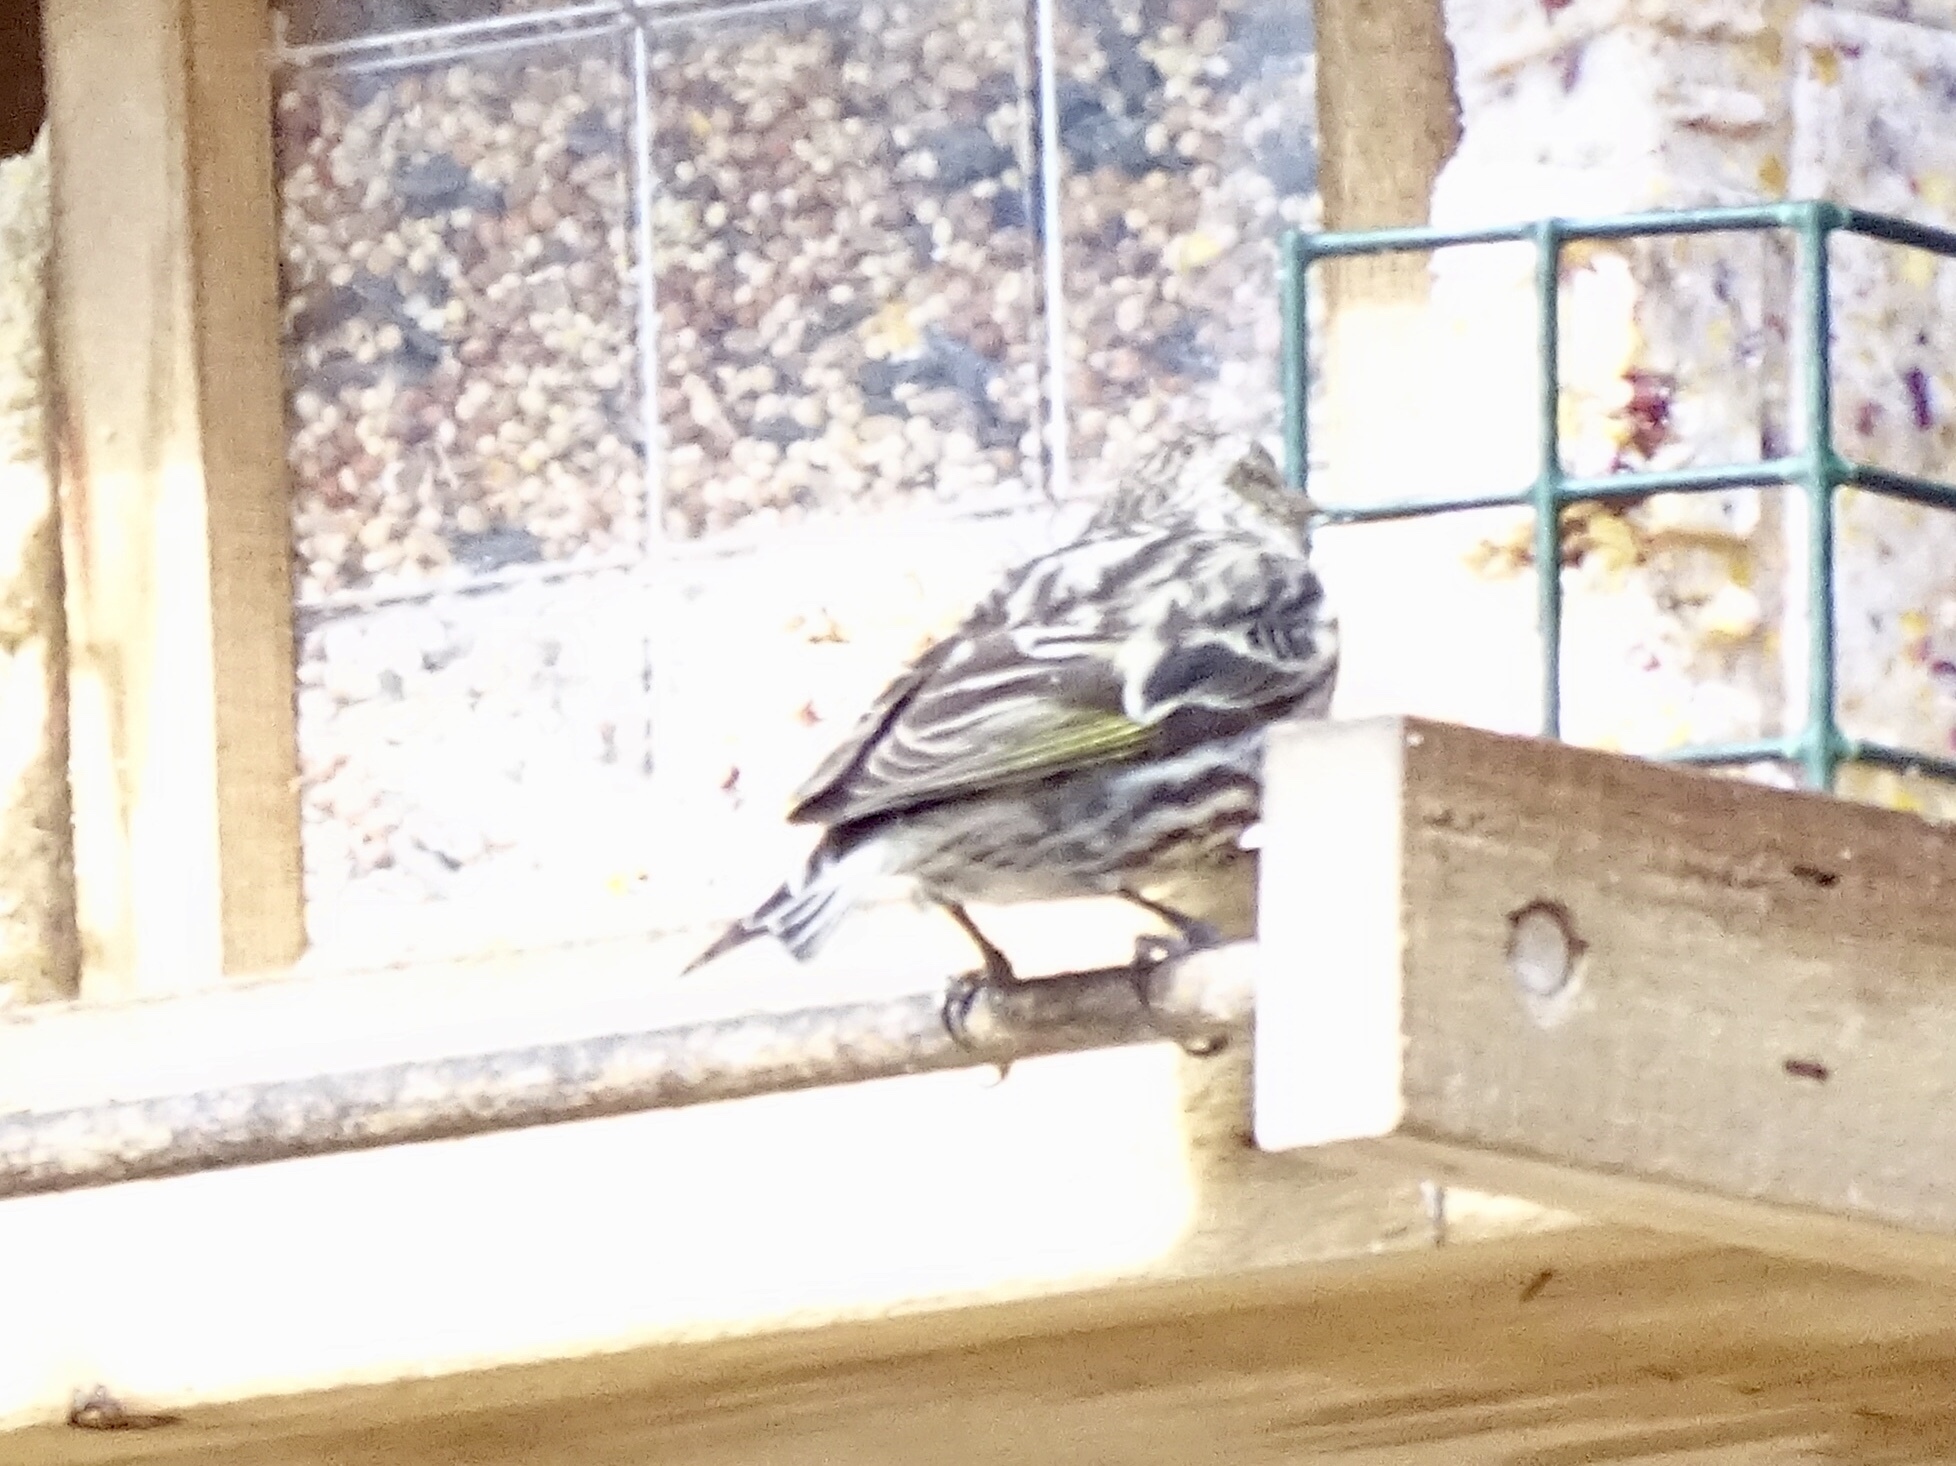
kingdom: Animalia
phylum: Chordata
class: Aves
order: Passeriformes
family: Fringillidae
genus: Spinus
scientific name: Spinus pinus
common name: Pine siskin
